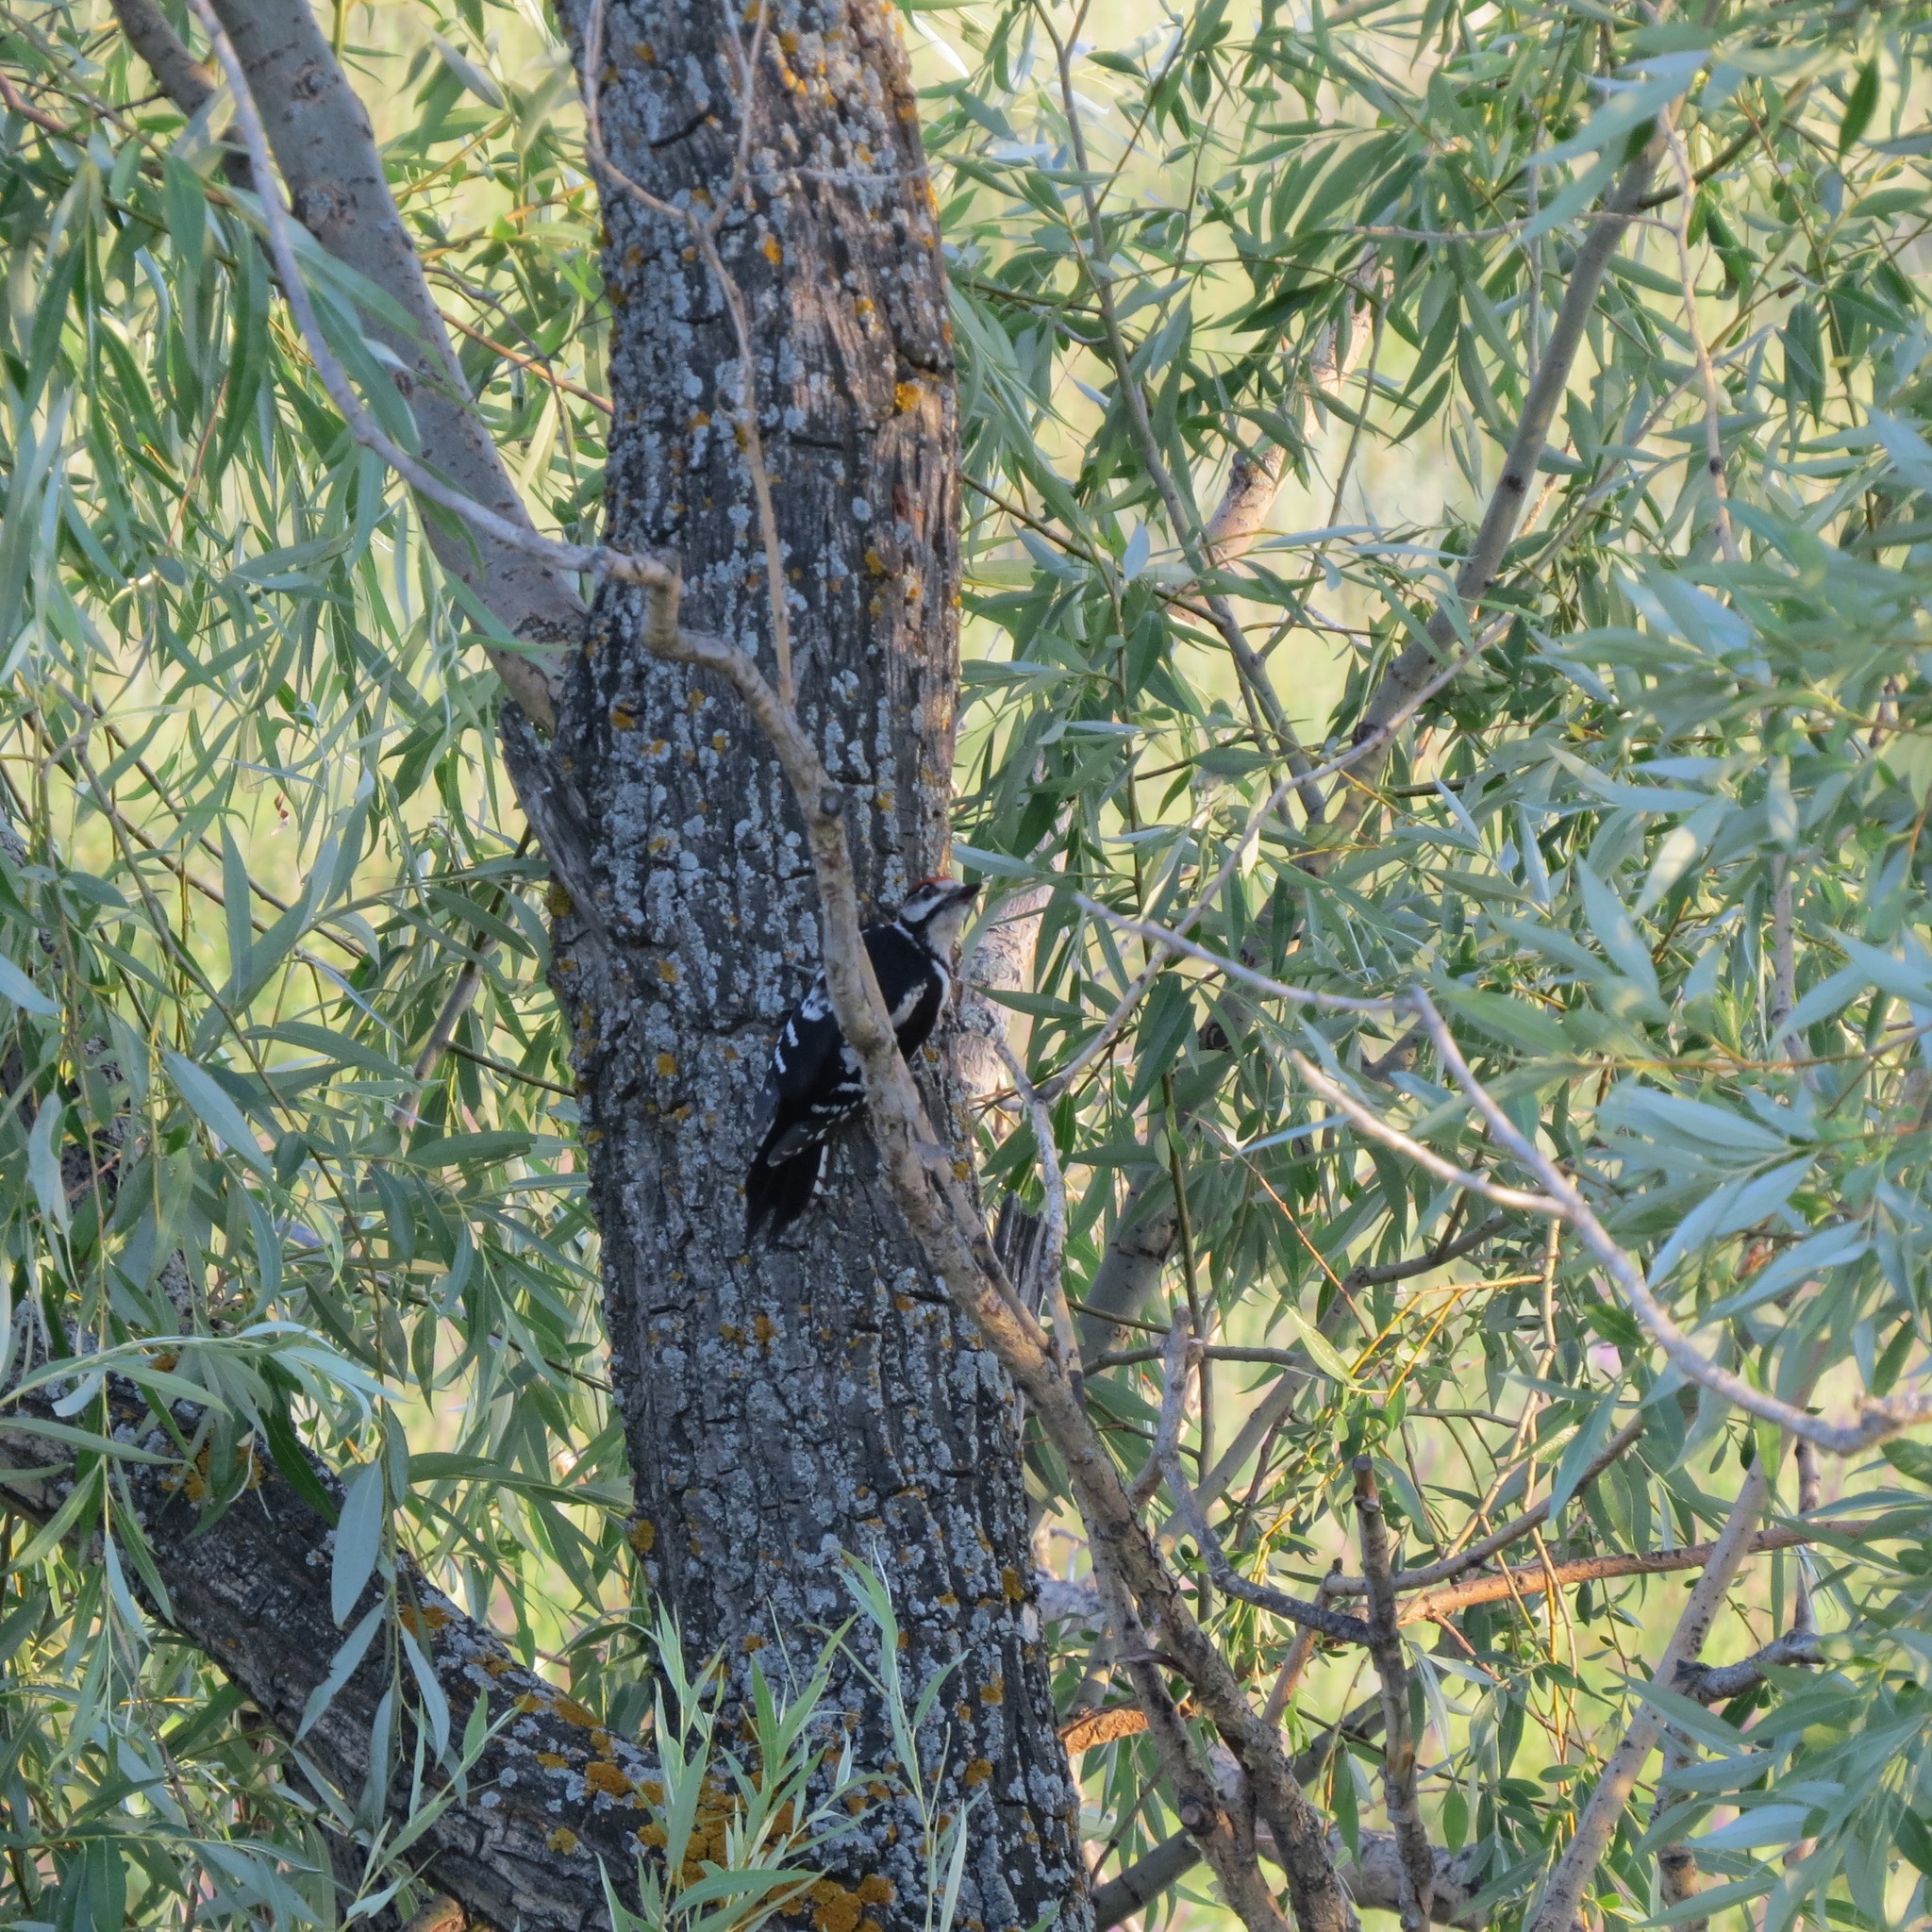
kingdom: Animalia
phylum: Chordata
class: Aves
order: Piciformes
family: Picidae
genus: Dendrocopos
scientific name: Dendrocopos major
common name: Great spotted woodpecker
